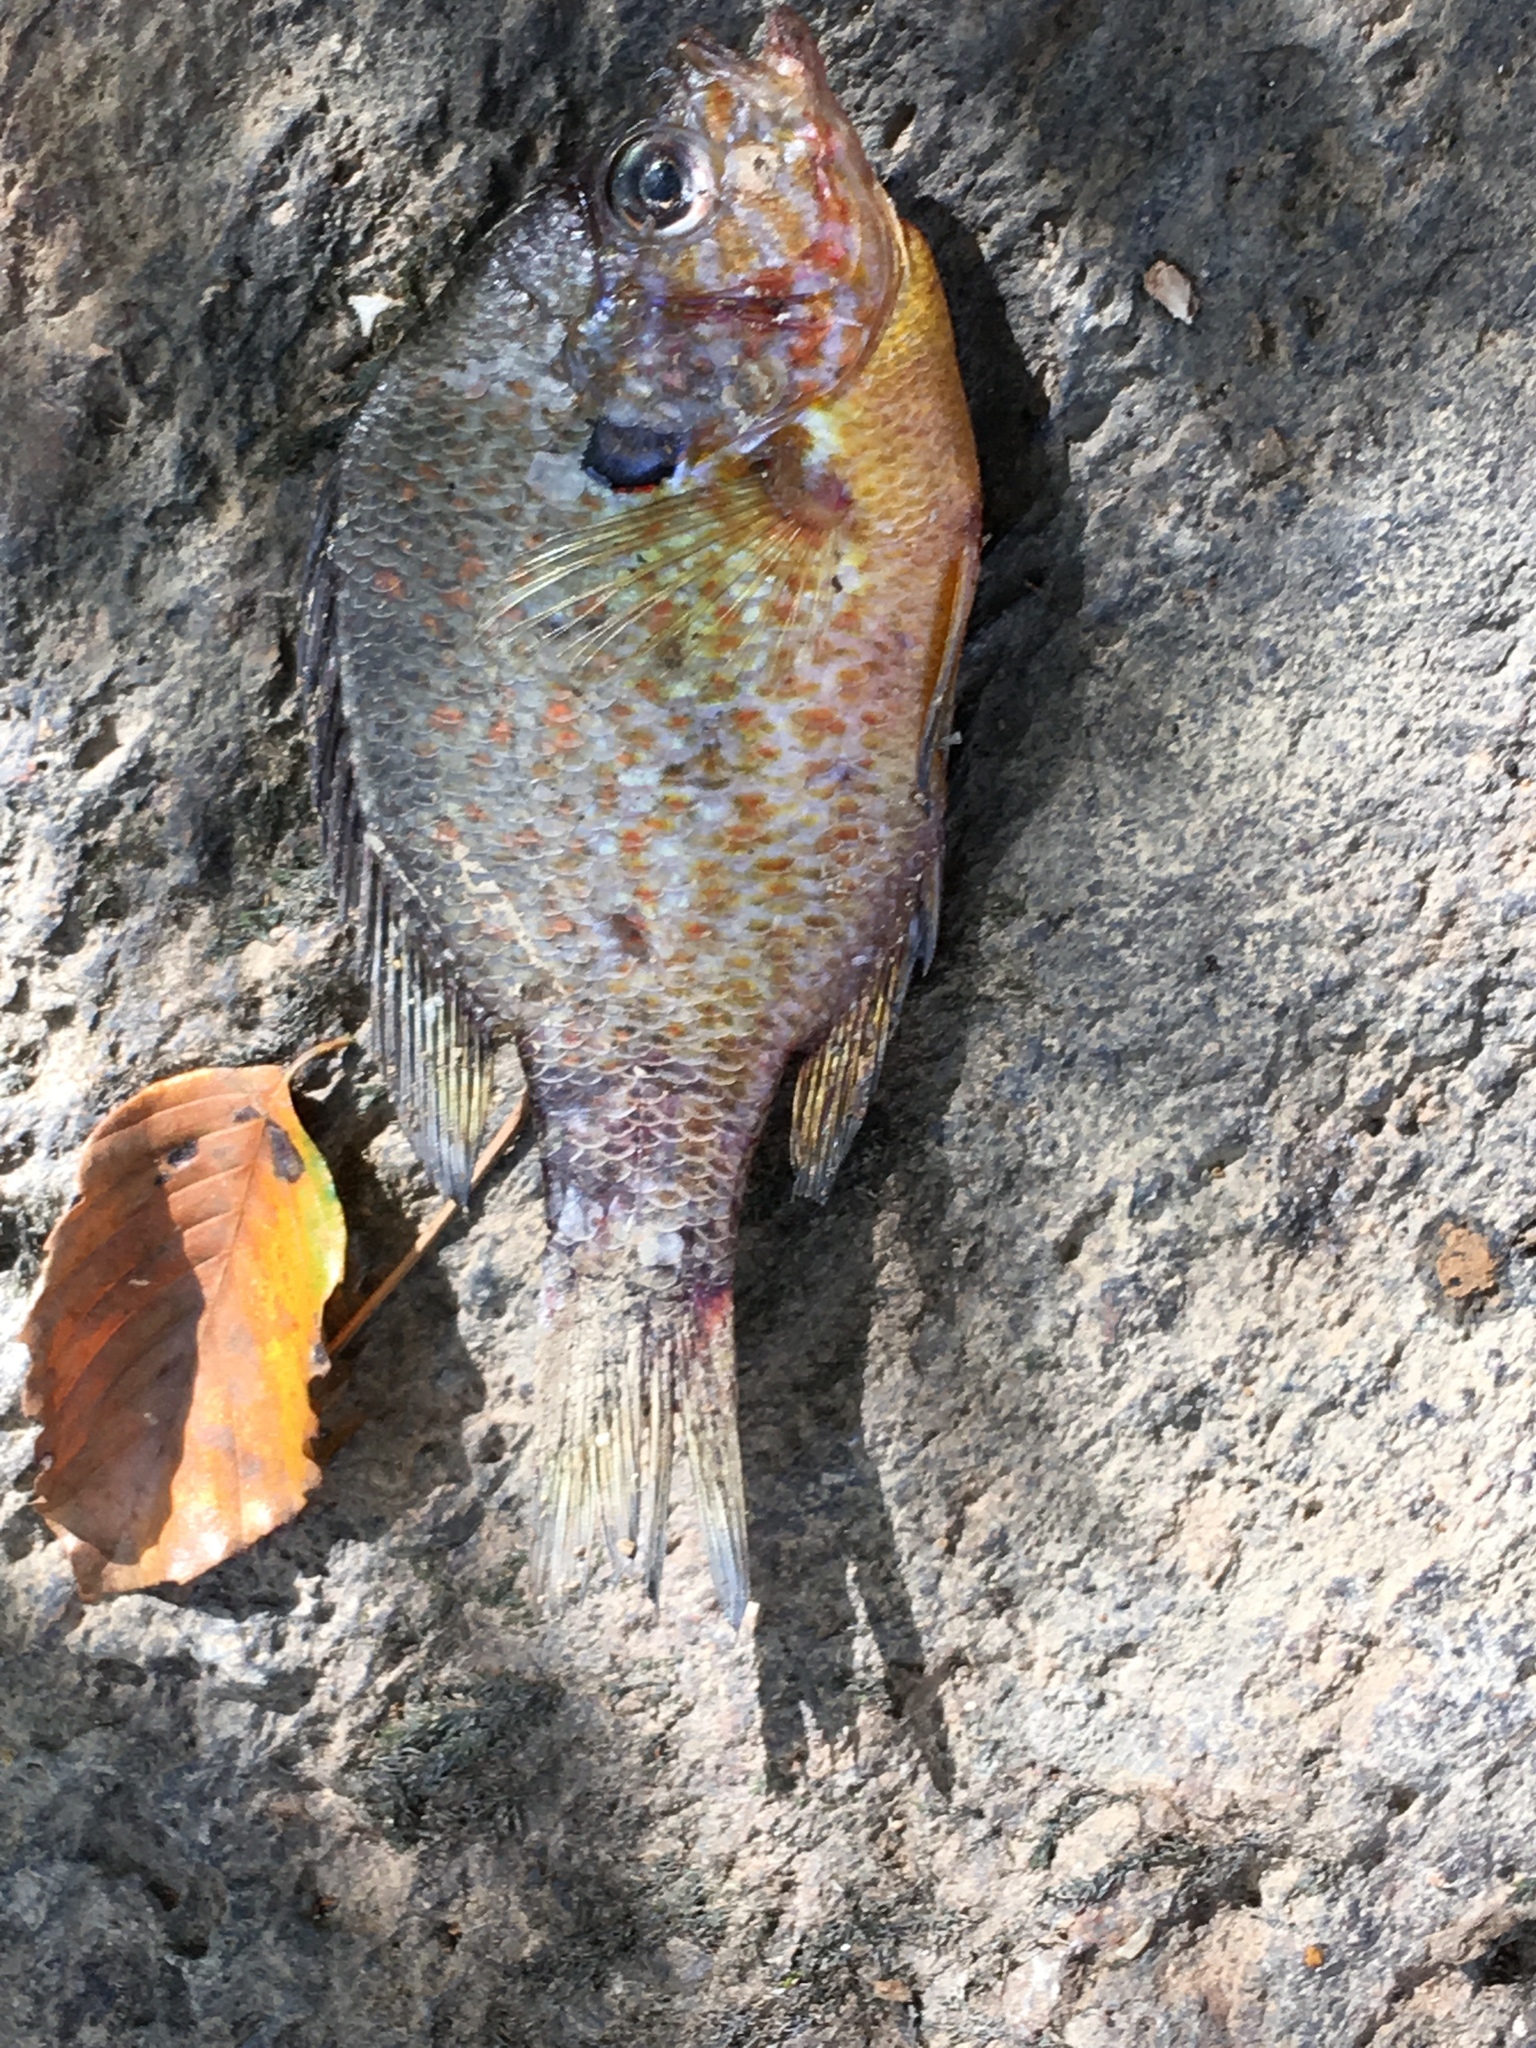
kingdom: Animalia
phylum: Chordata
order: Perciformes
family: Centrarchidae
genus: Lepomis
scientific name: Lepomis gibbosus
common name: Pumpkinseed
